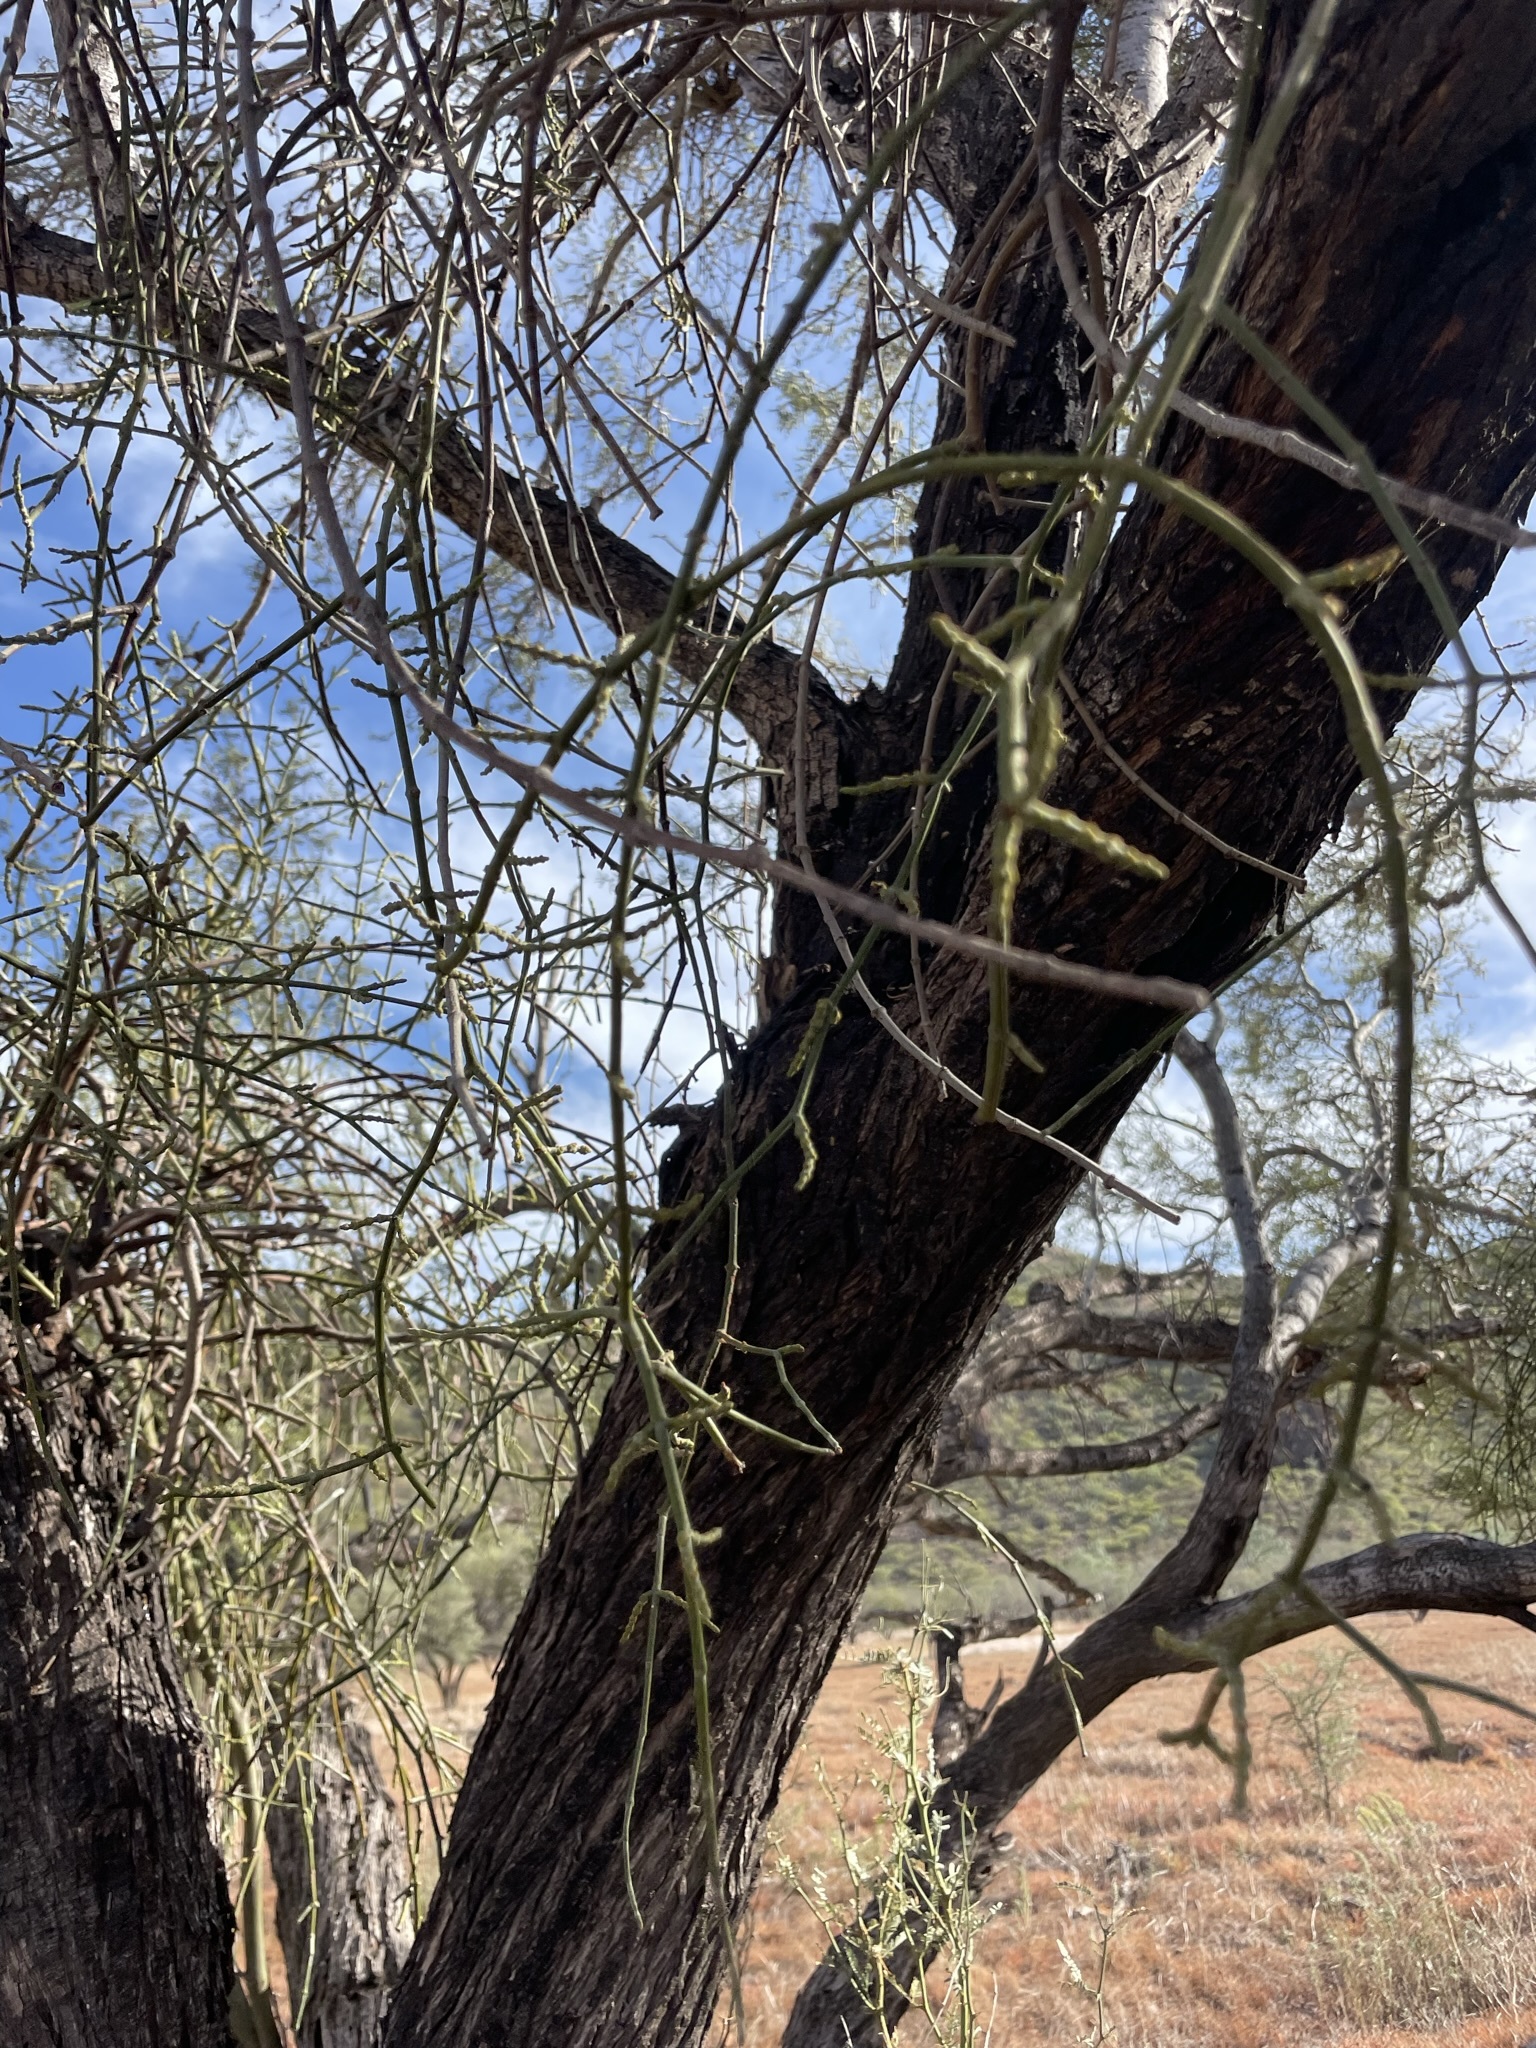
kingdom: Plantae
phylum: Tracheophyta
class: Magnoliopsida
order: Santalales
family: Viscaceae
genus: Phoradendron
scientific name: Phoradendron californicum
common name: Acacia mistletoe
